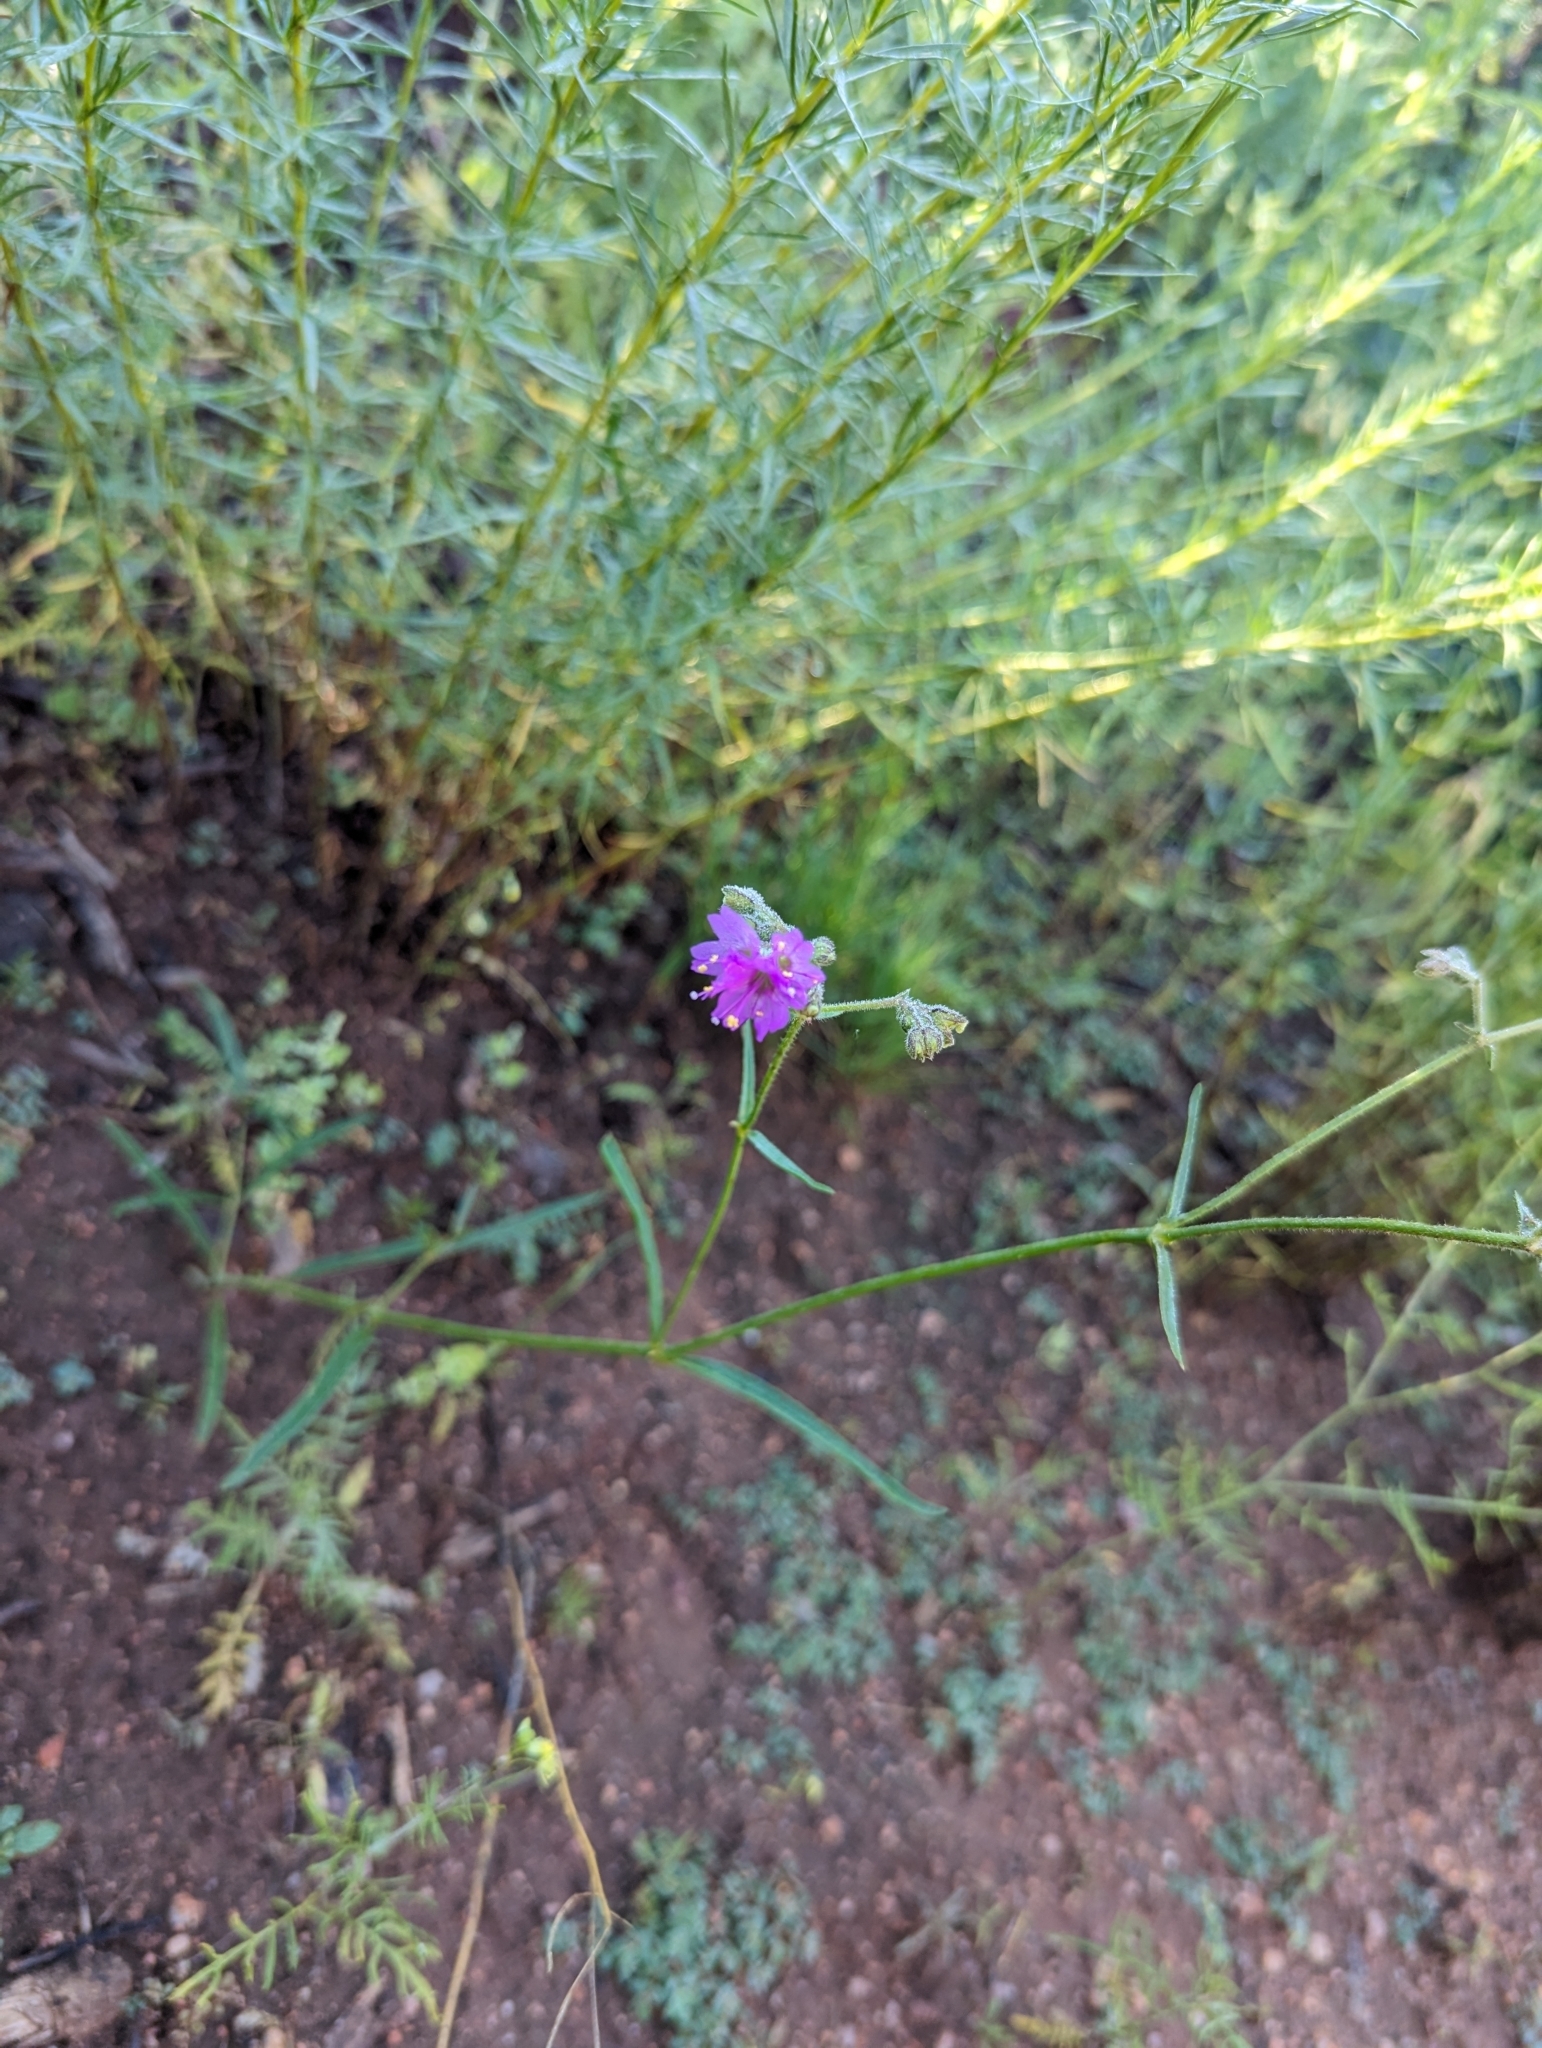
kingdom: Plantae
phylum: Tracheophyta
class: Magnoliopsida
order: Caryophyllales
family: Nyctaginaceae
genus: Mirabilis
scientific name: Mirabilis linearis
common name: Linear-leaved four-o'clock
